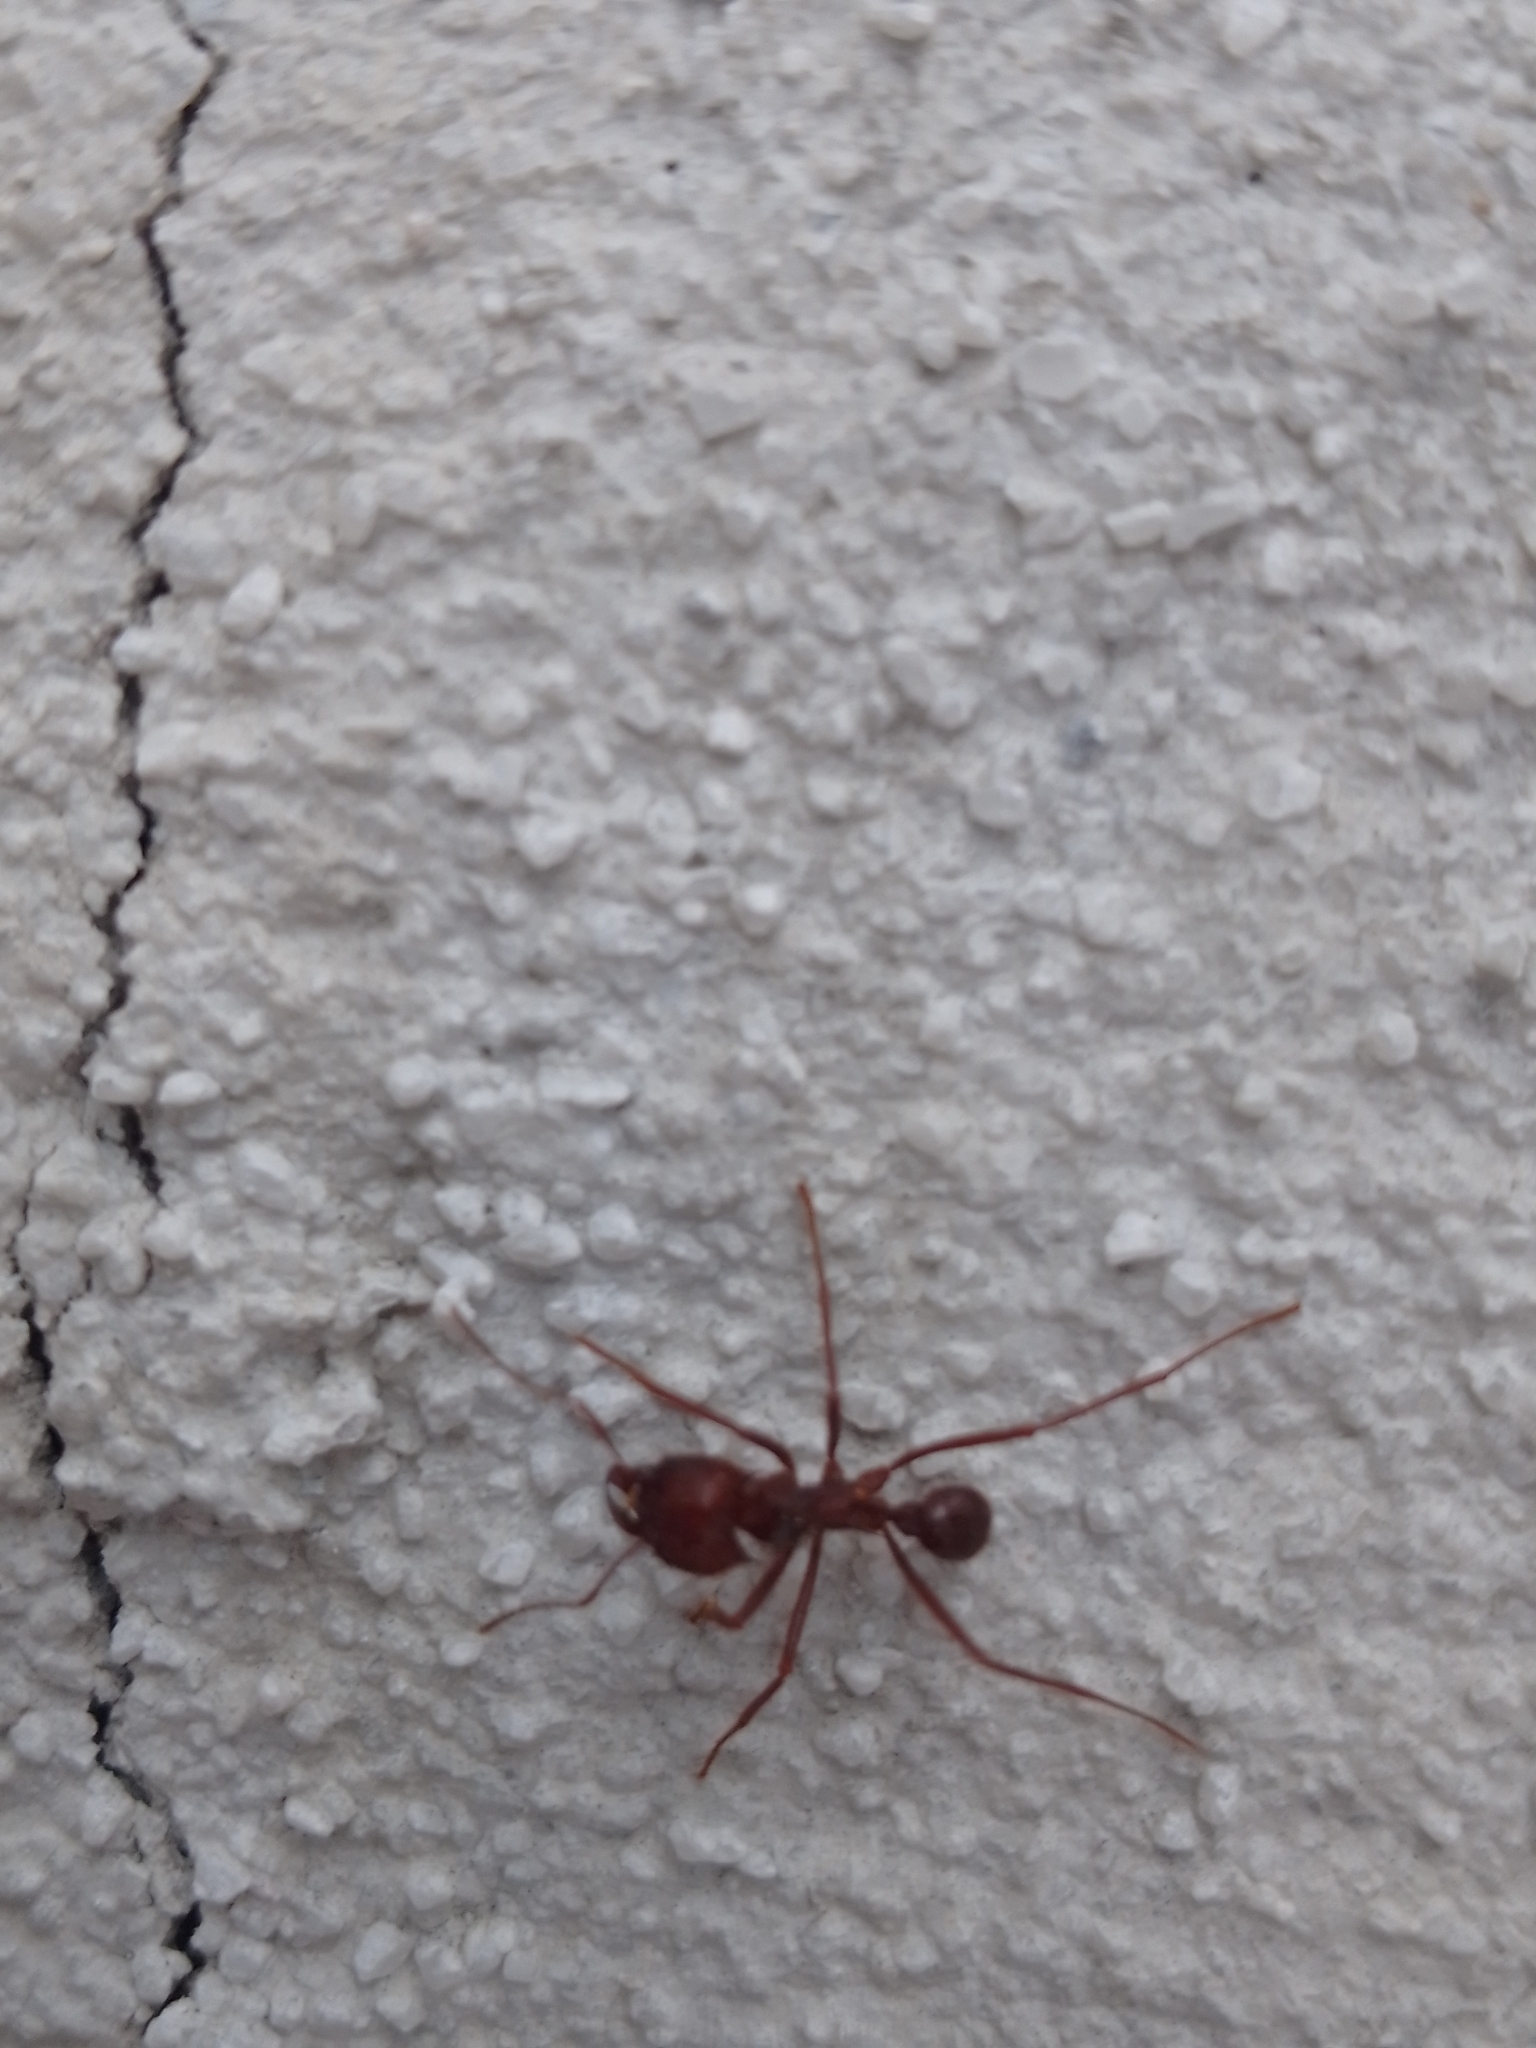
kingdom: Animalia
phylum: Arthropoda
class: Insecta
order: Hymenoptera
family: Formicidae
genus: Atta
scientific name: Atta mexicana
